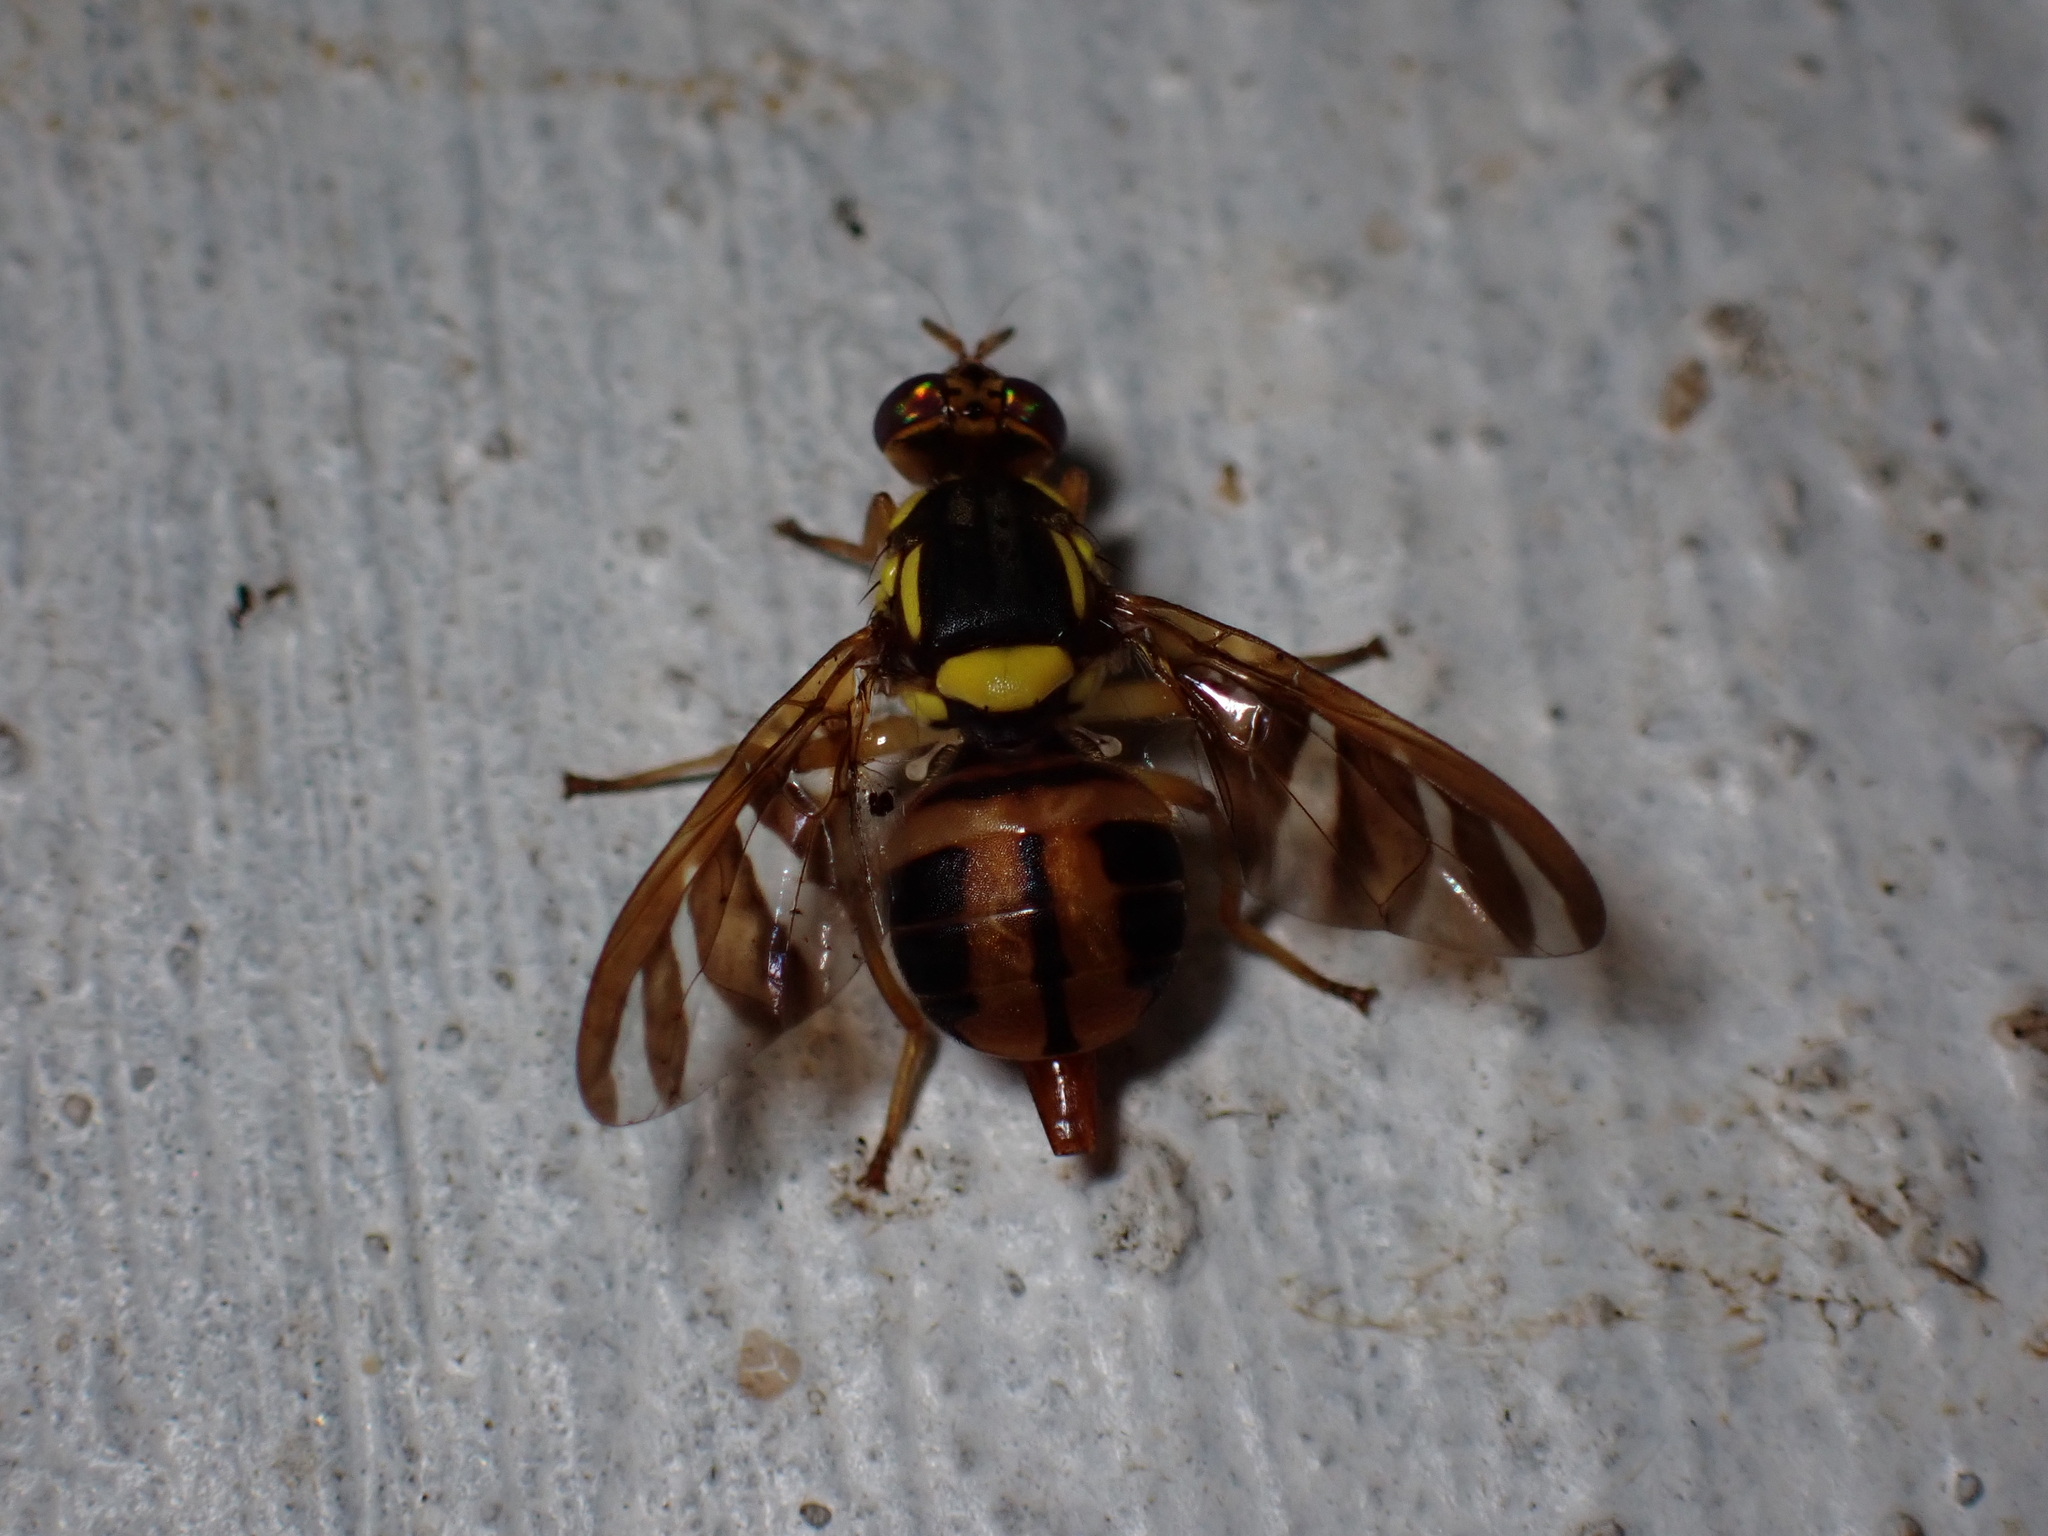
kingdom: Animalia
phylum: Arthropoda
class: Insecta
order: Diptera
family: Tephritidae
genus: Bactrocera
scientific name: Bactrocera umbrosa
